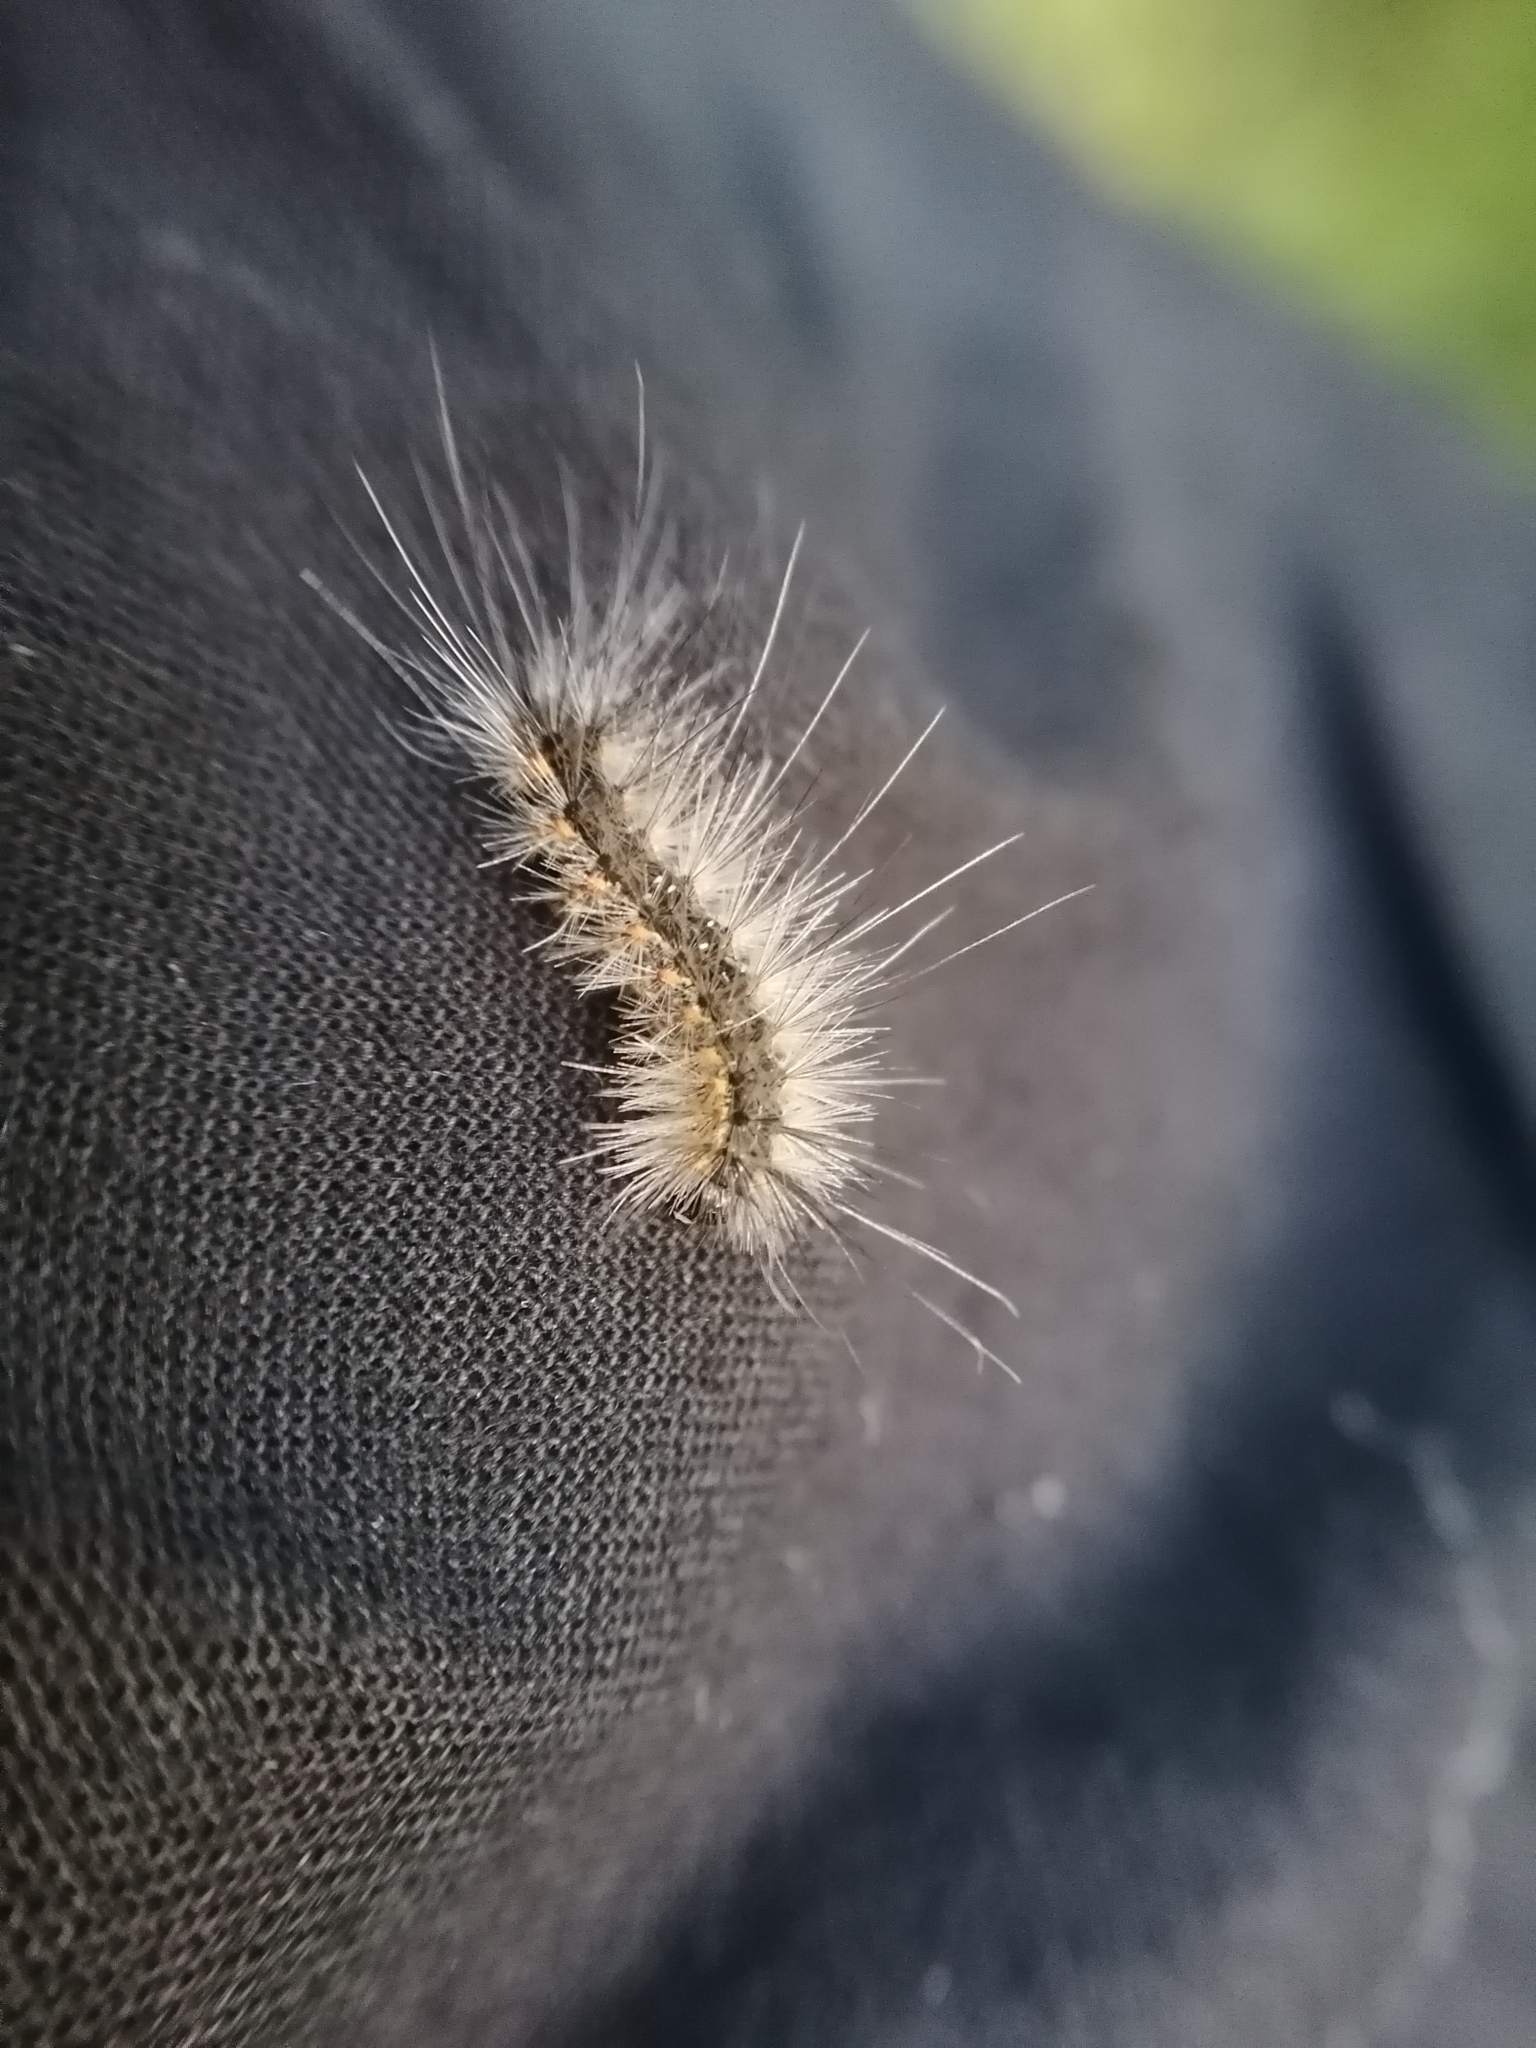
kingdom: Animalia
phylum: Arthropoda
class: Insecta
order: Lepidoptera
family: Erebidae
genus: Hyphantria
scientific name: Hyphantria cunea
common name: American white moth
